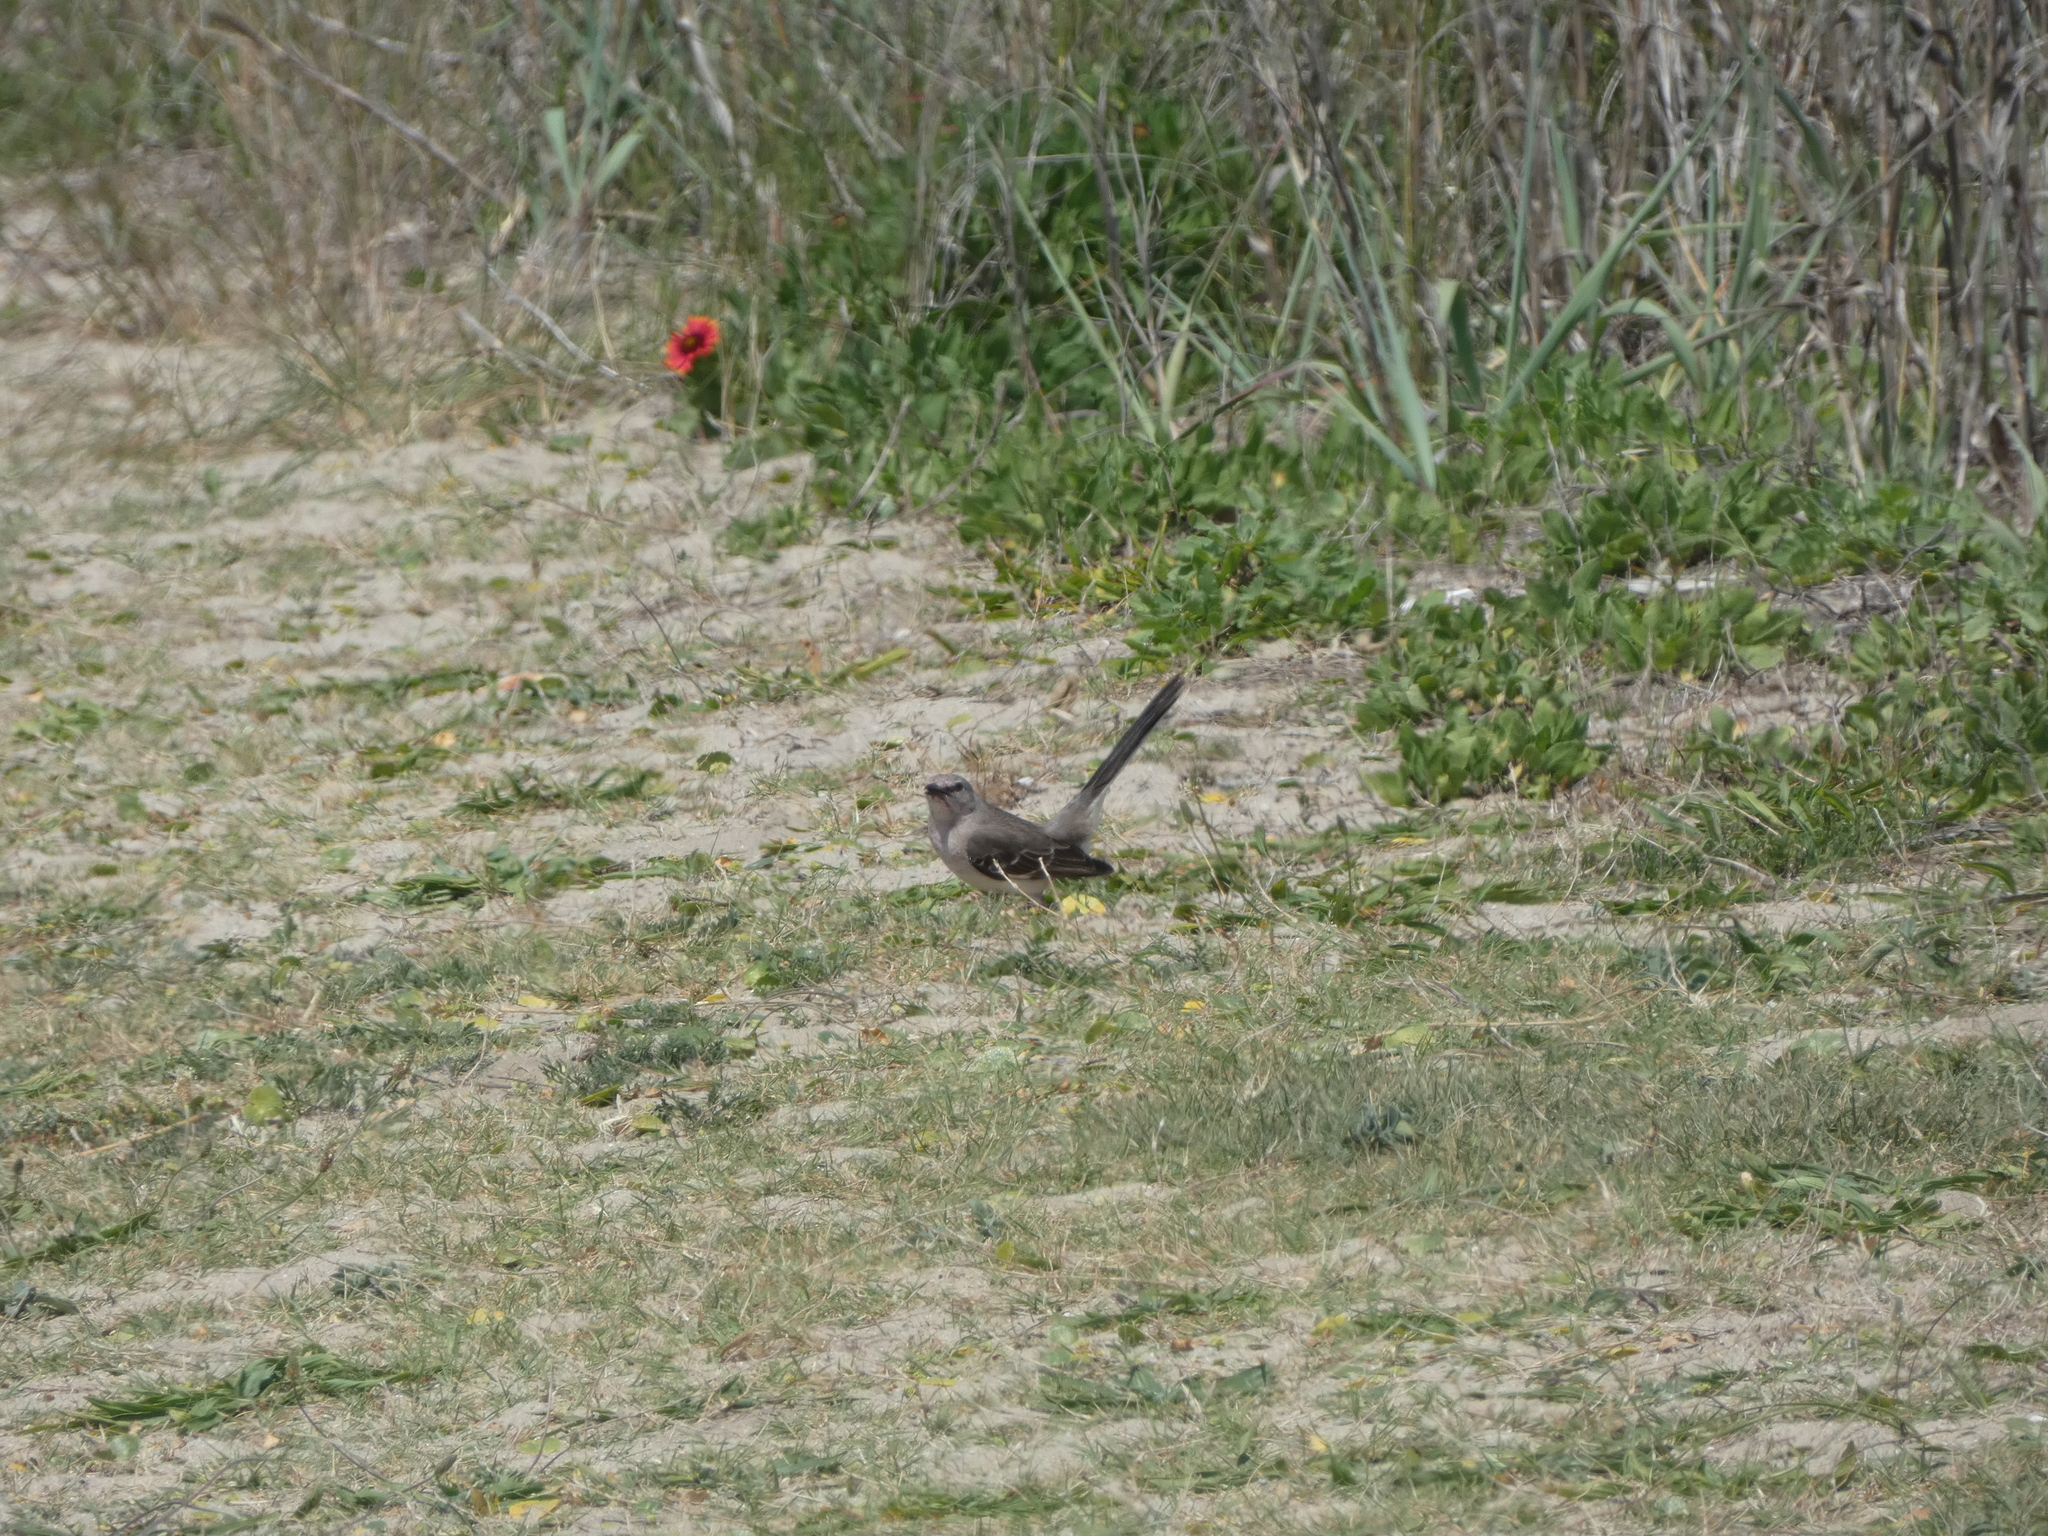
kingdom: Animalia
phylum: Chordata
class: Aves
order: Passeriformes
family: Mimidae
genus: Mimus
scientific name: Mimus polyglottos
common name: Northern mockingbird
